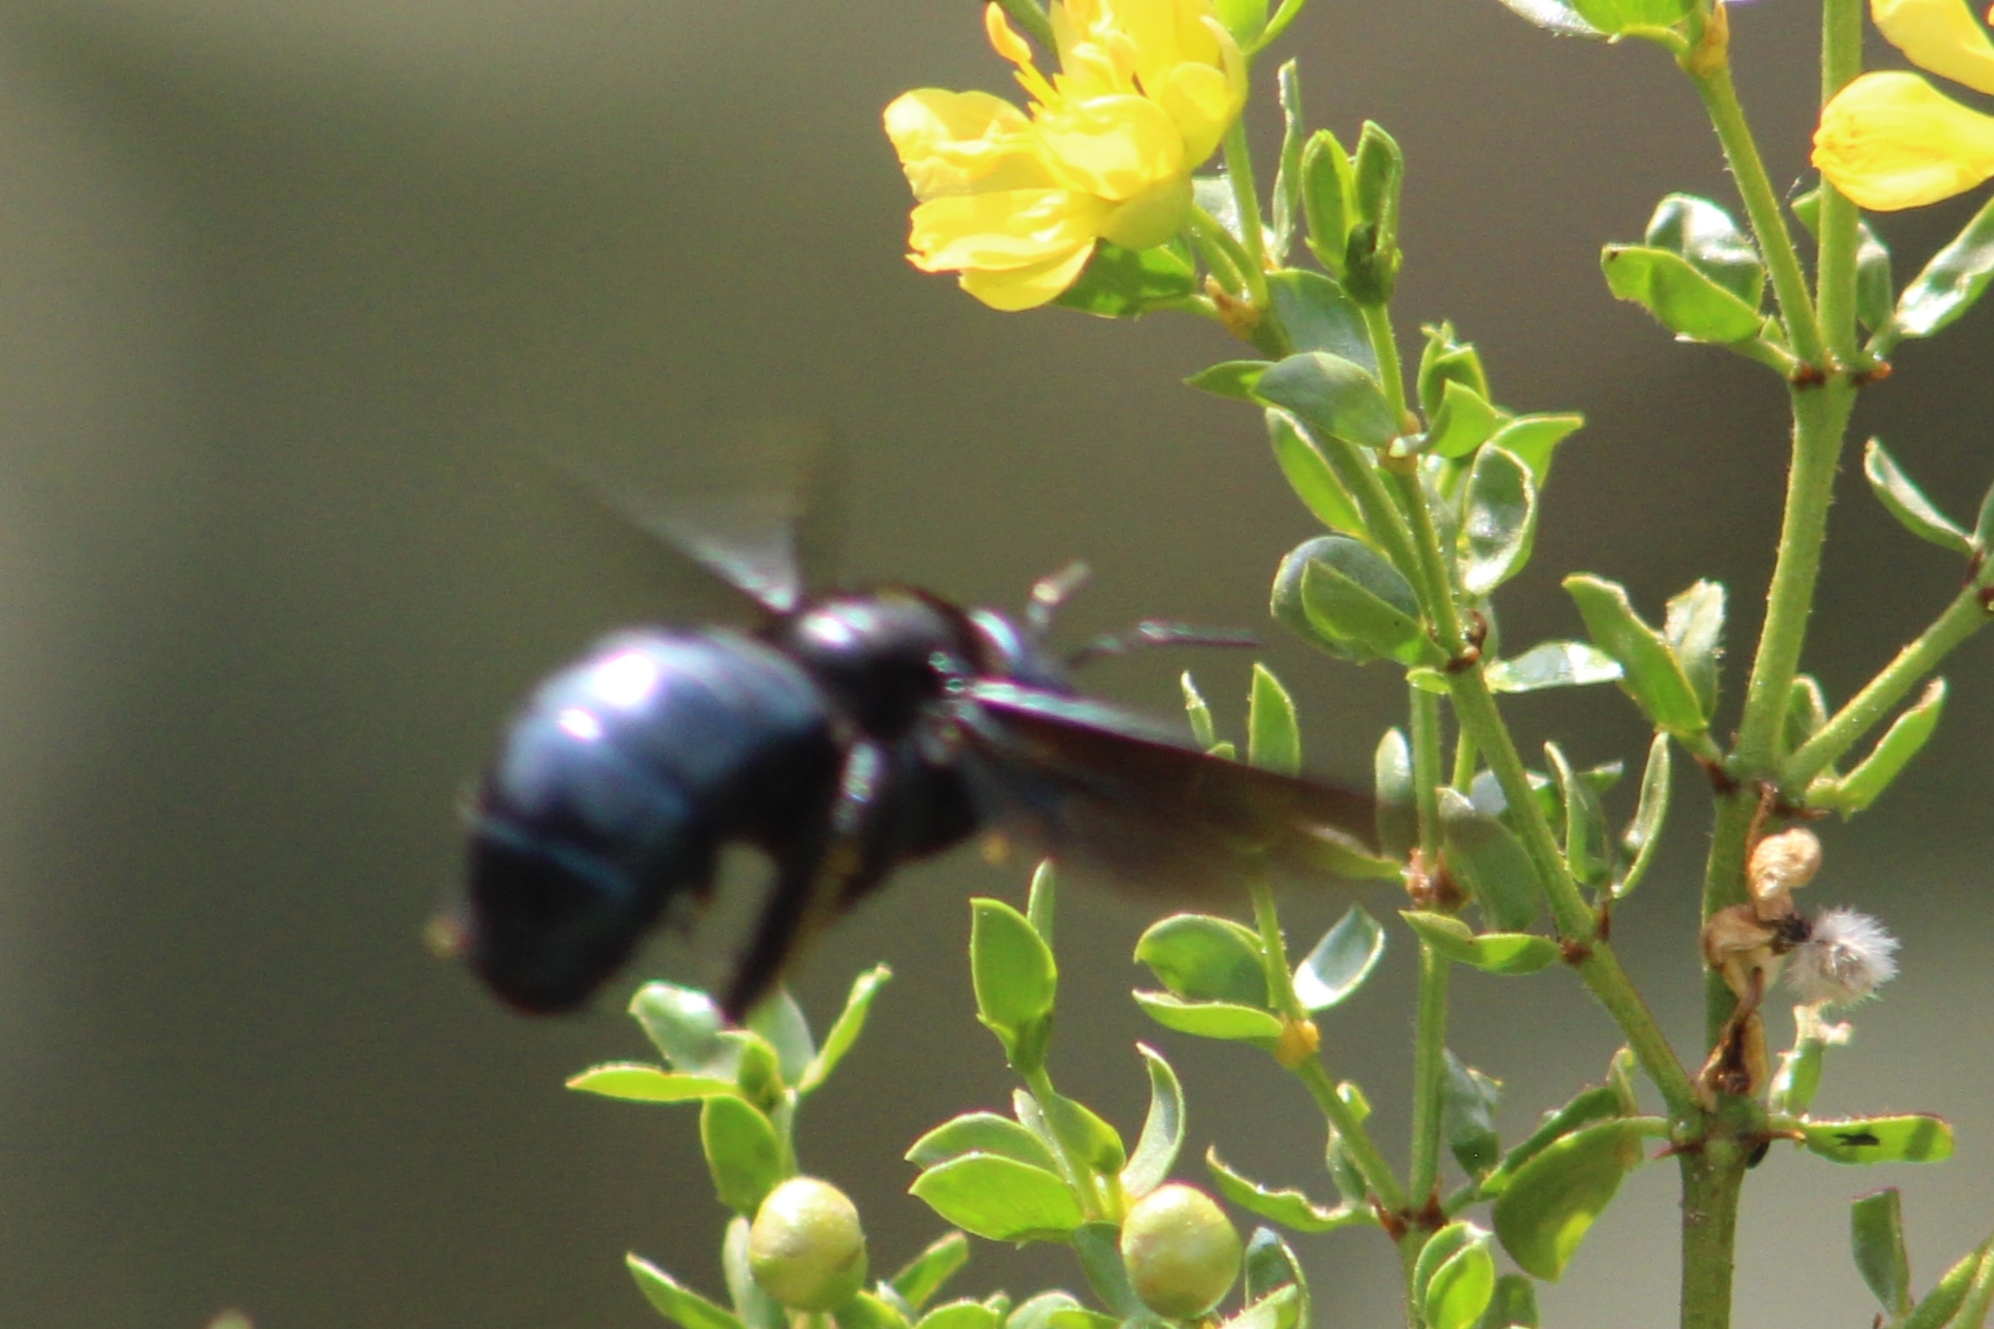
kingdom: Animalia
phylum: Arthropoda
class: Insecta
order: Hymenoptera
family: Apidae
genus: Xylocopa
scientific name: Xylocopa californica
